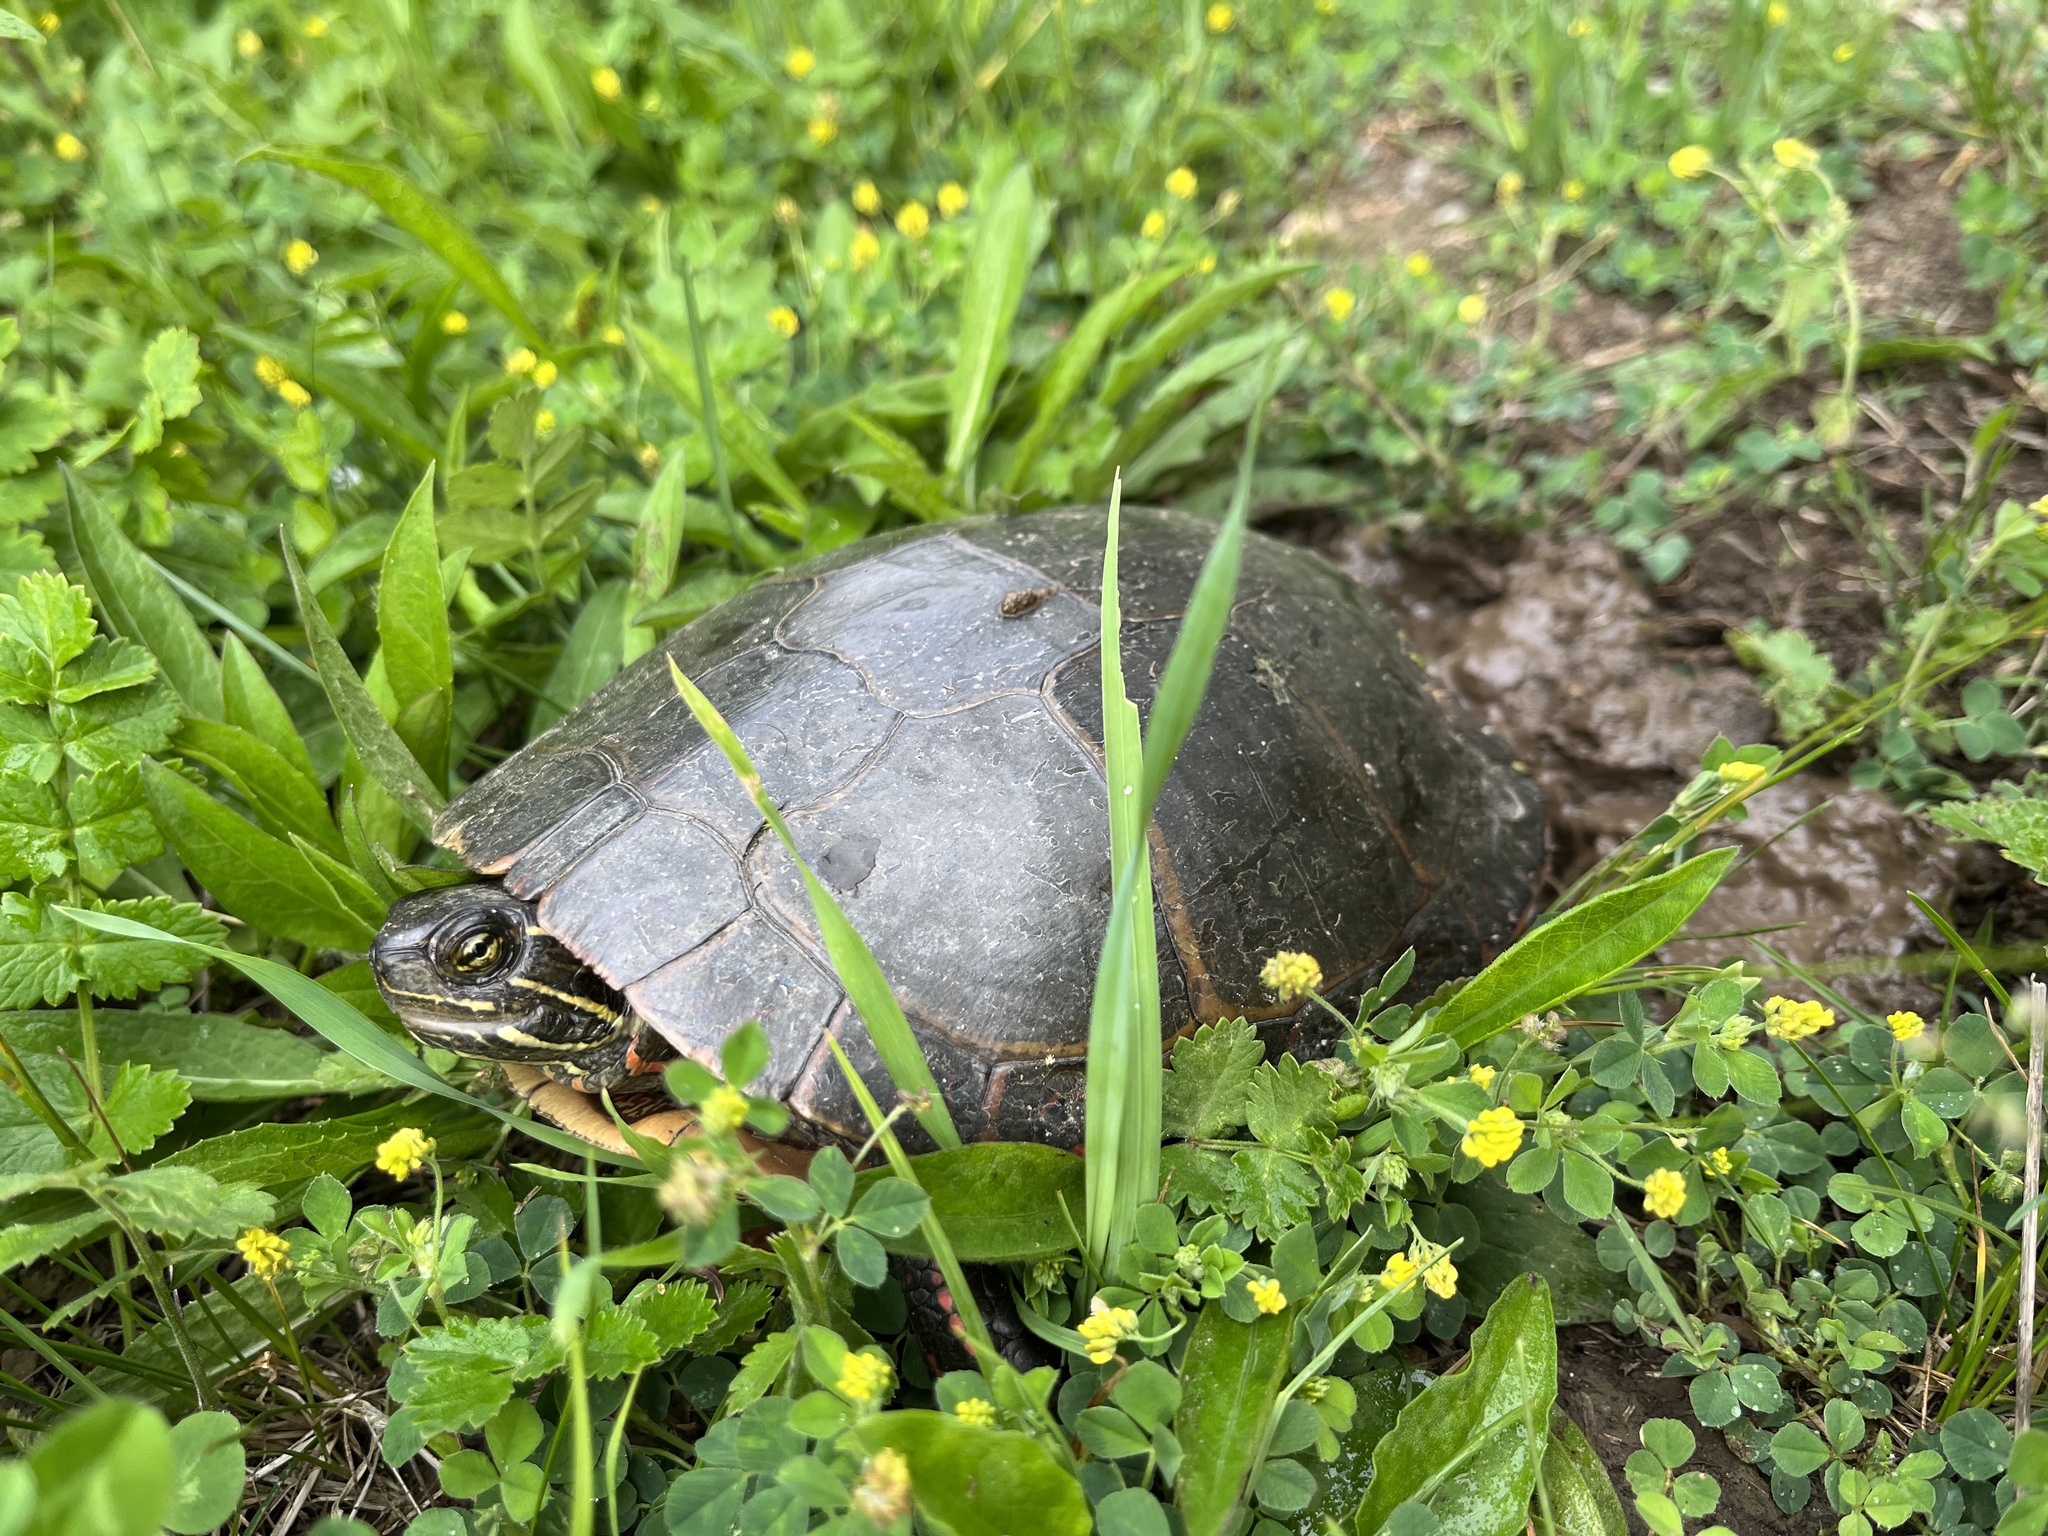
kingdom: Animalia
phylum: Chordata
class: Testudines
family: Emydidae
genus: Chrysemys
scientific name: Chrysemys picta
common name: Painted turtle
